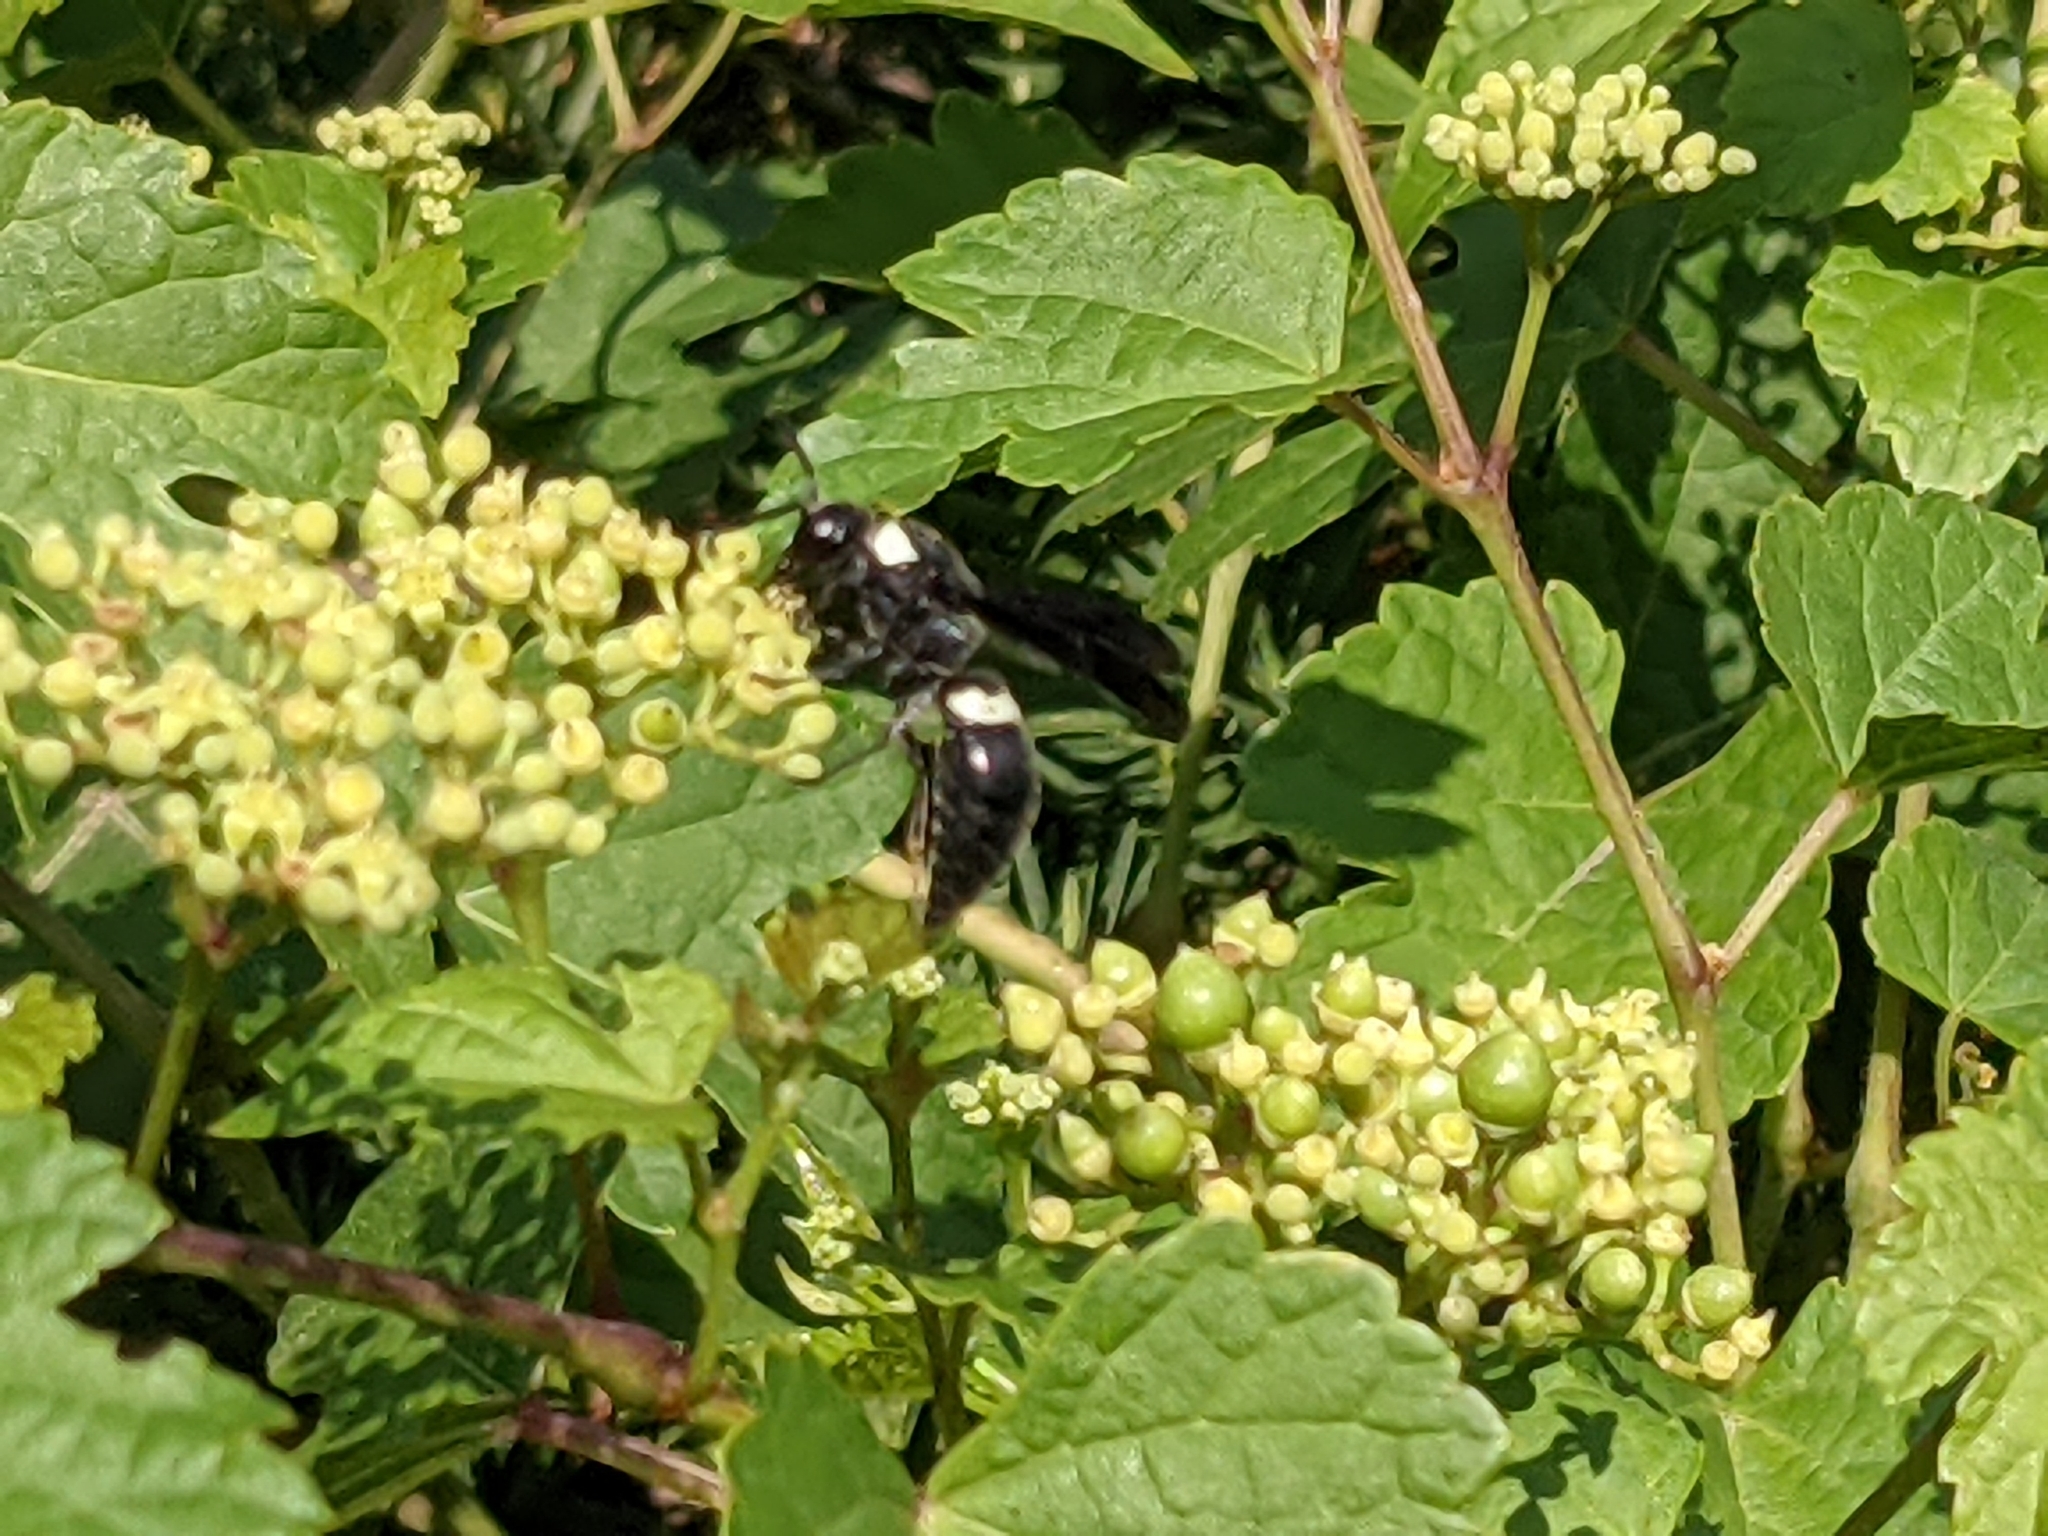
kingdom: Animalia
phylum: Arthropoda
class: Insecta
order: Hymenoptera
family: Eumenidae
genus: Monobia
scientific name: Monobia quadridens
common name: Four-toothed mason wasp
